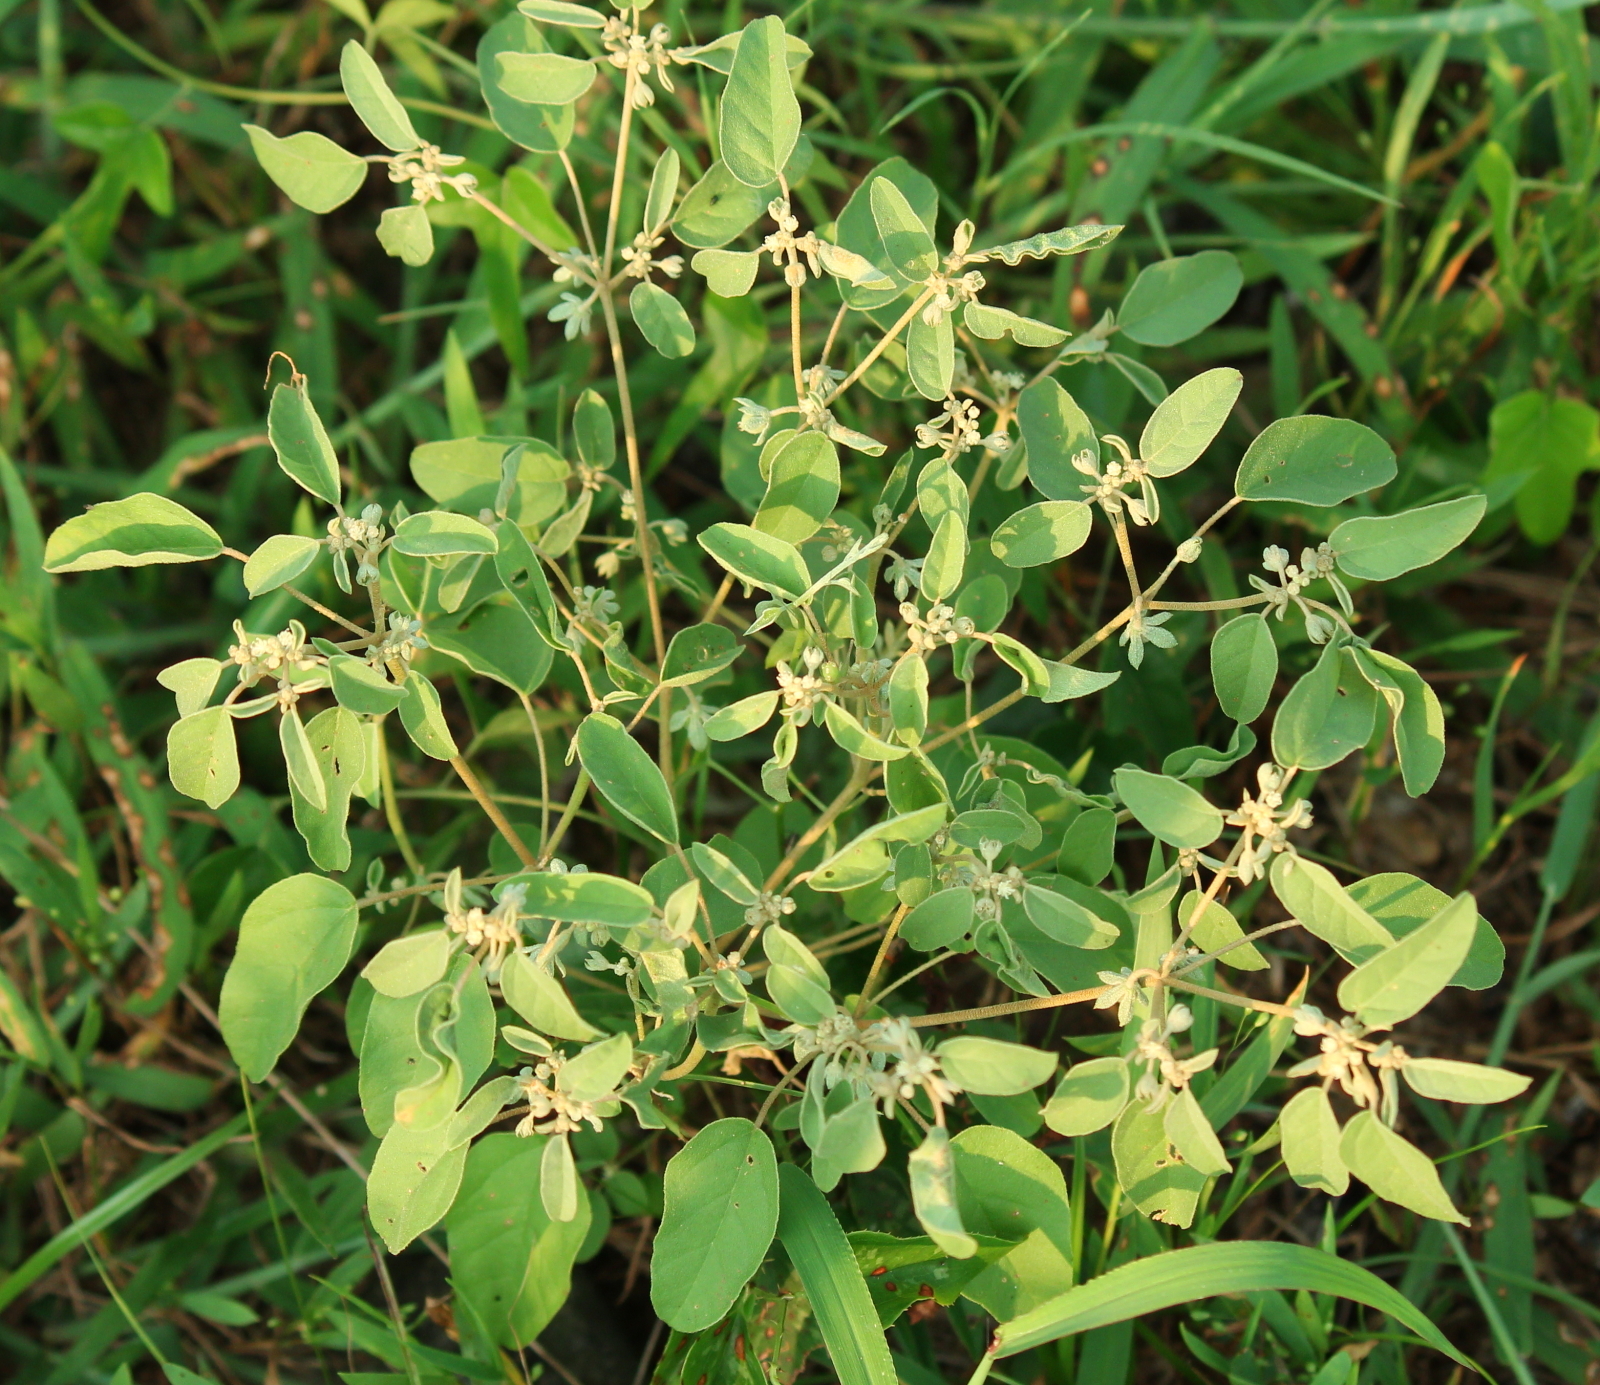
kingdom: Plantae
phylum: Tracheophyta
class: Magnoliopsida
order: Malpighiales
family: Euphorbiaceae
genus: Croton
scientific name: Croton lindheimerianus
